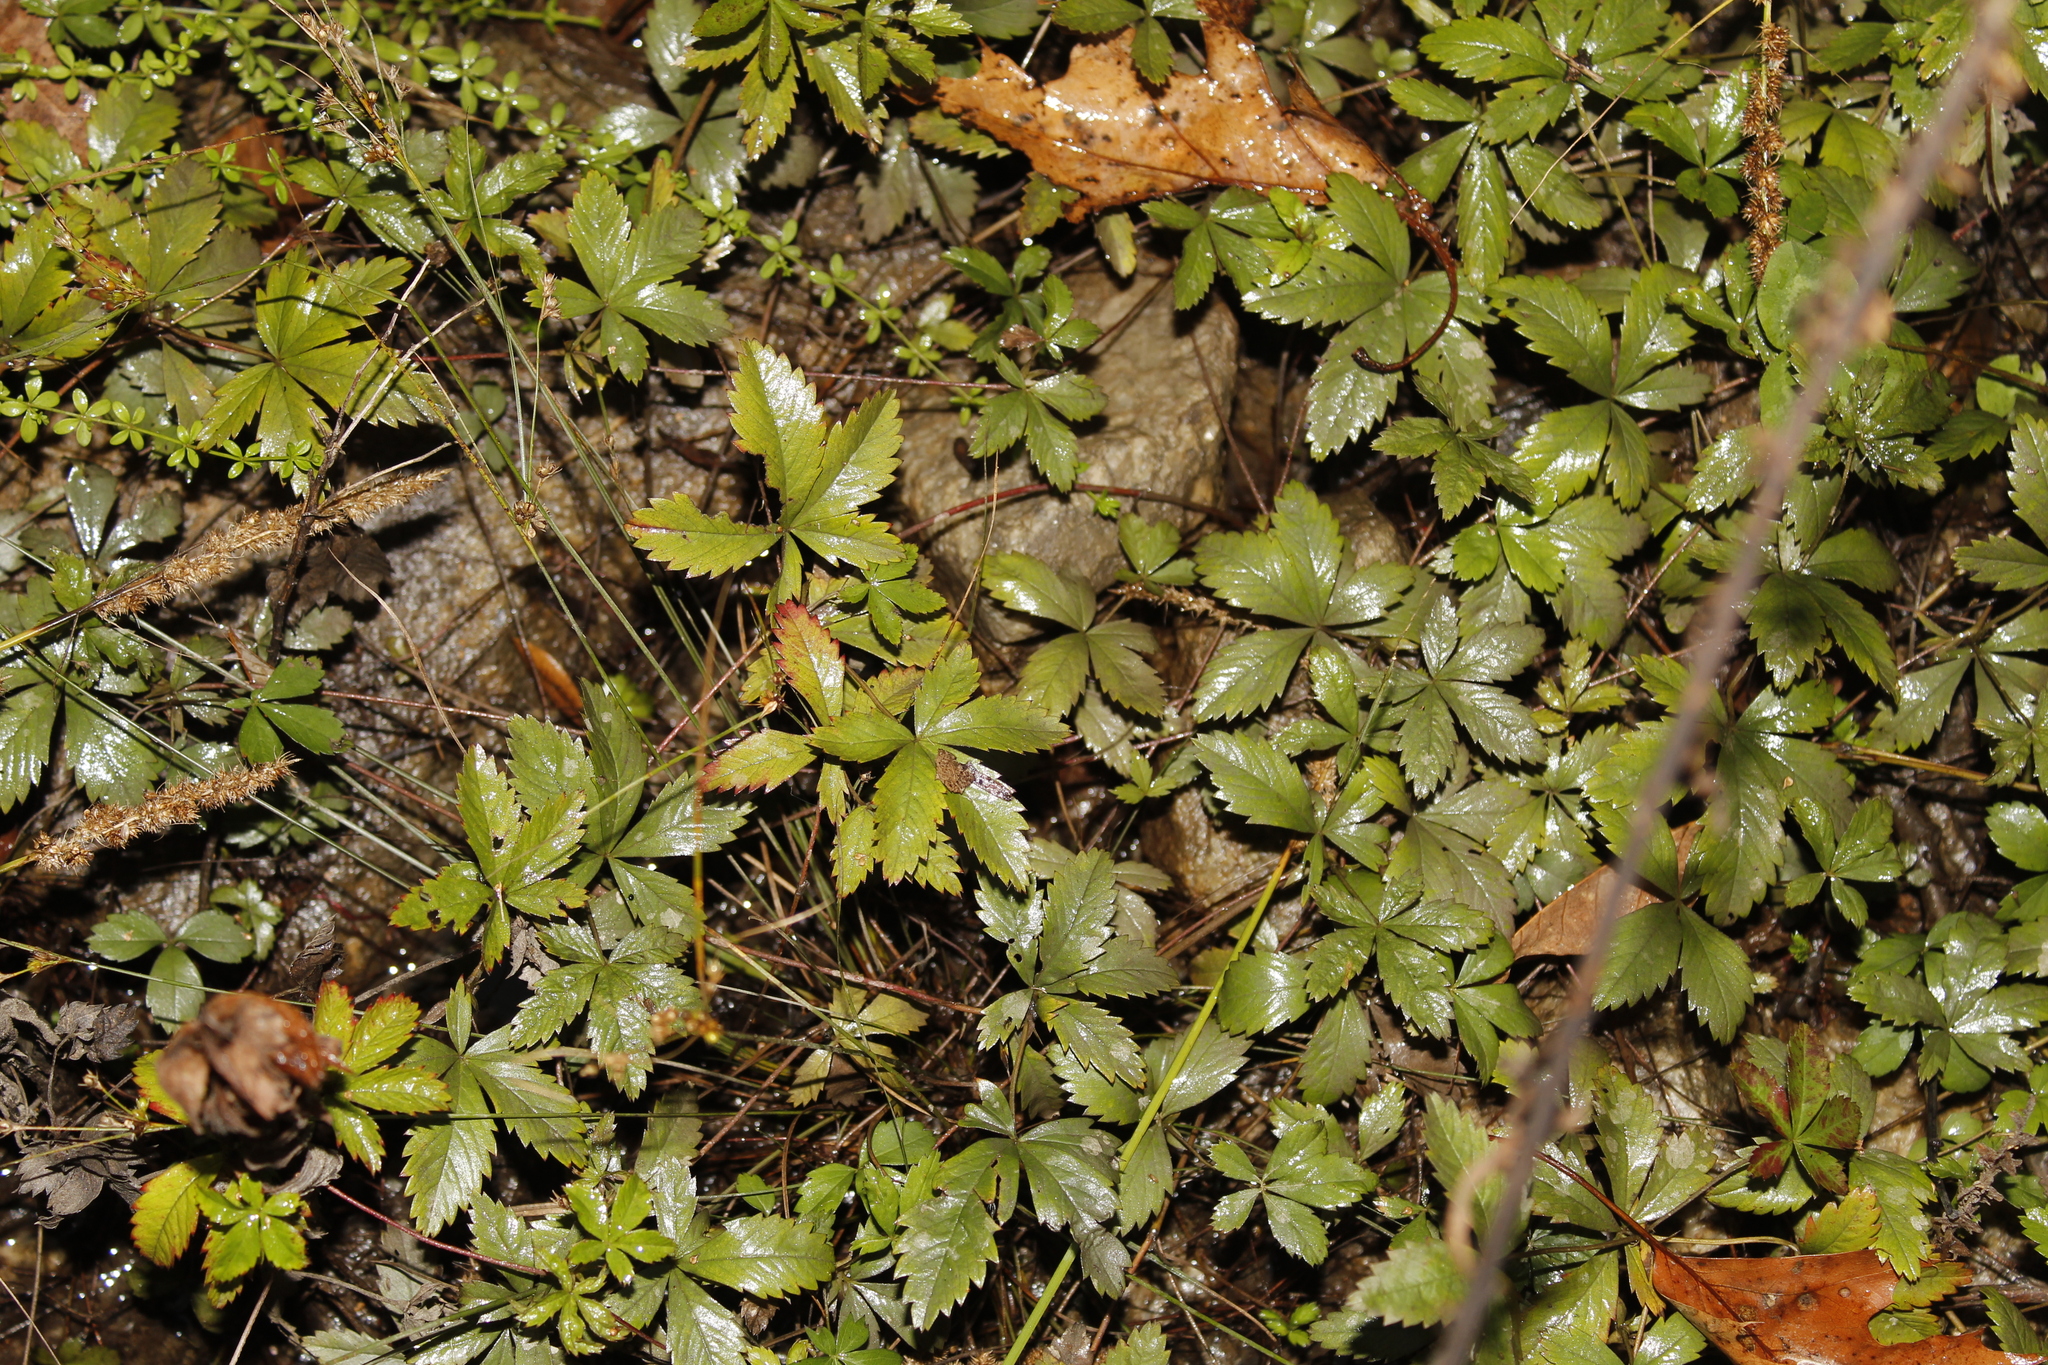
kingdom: Plantae
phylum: Tracheophyta
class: Magnoliopsida
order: Rosales
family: Rosaceae
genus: Potentilla
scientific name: Potentilla simplex
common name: Old field cinquefoil
